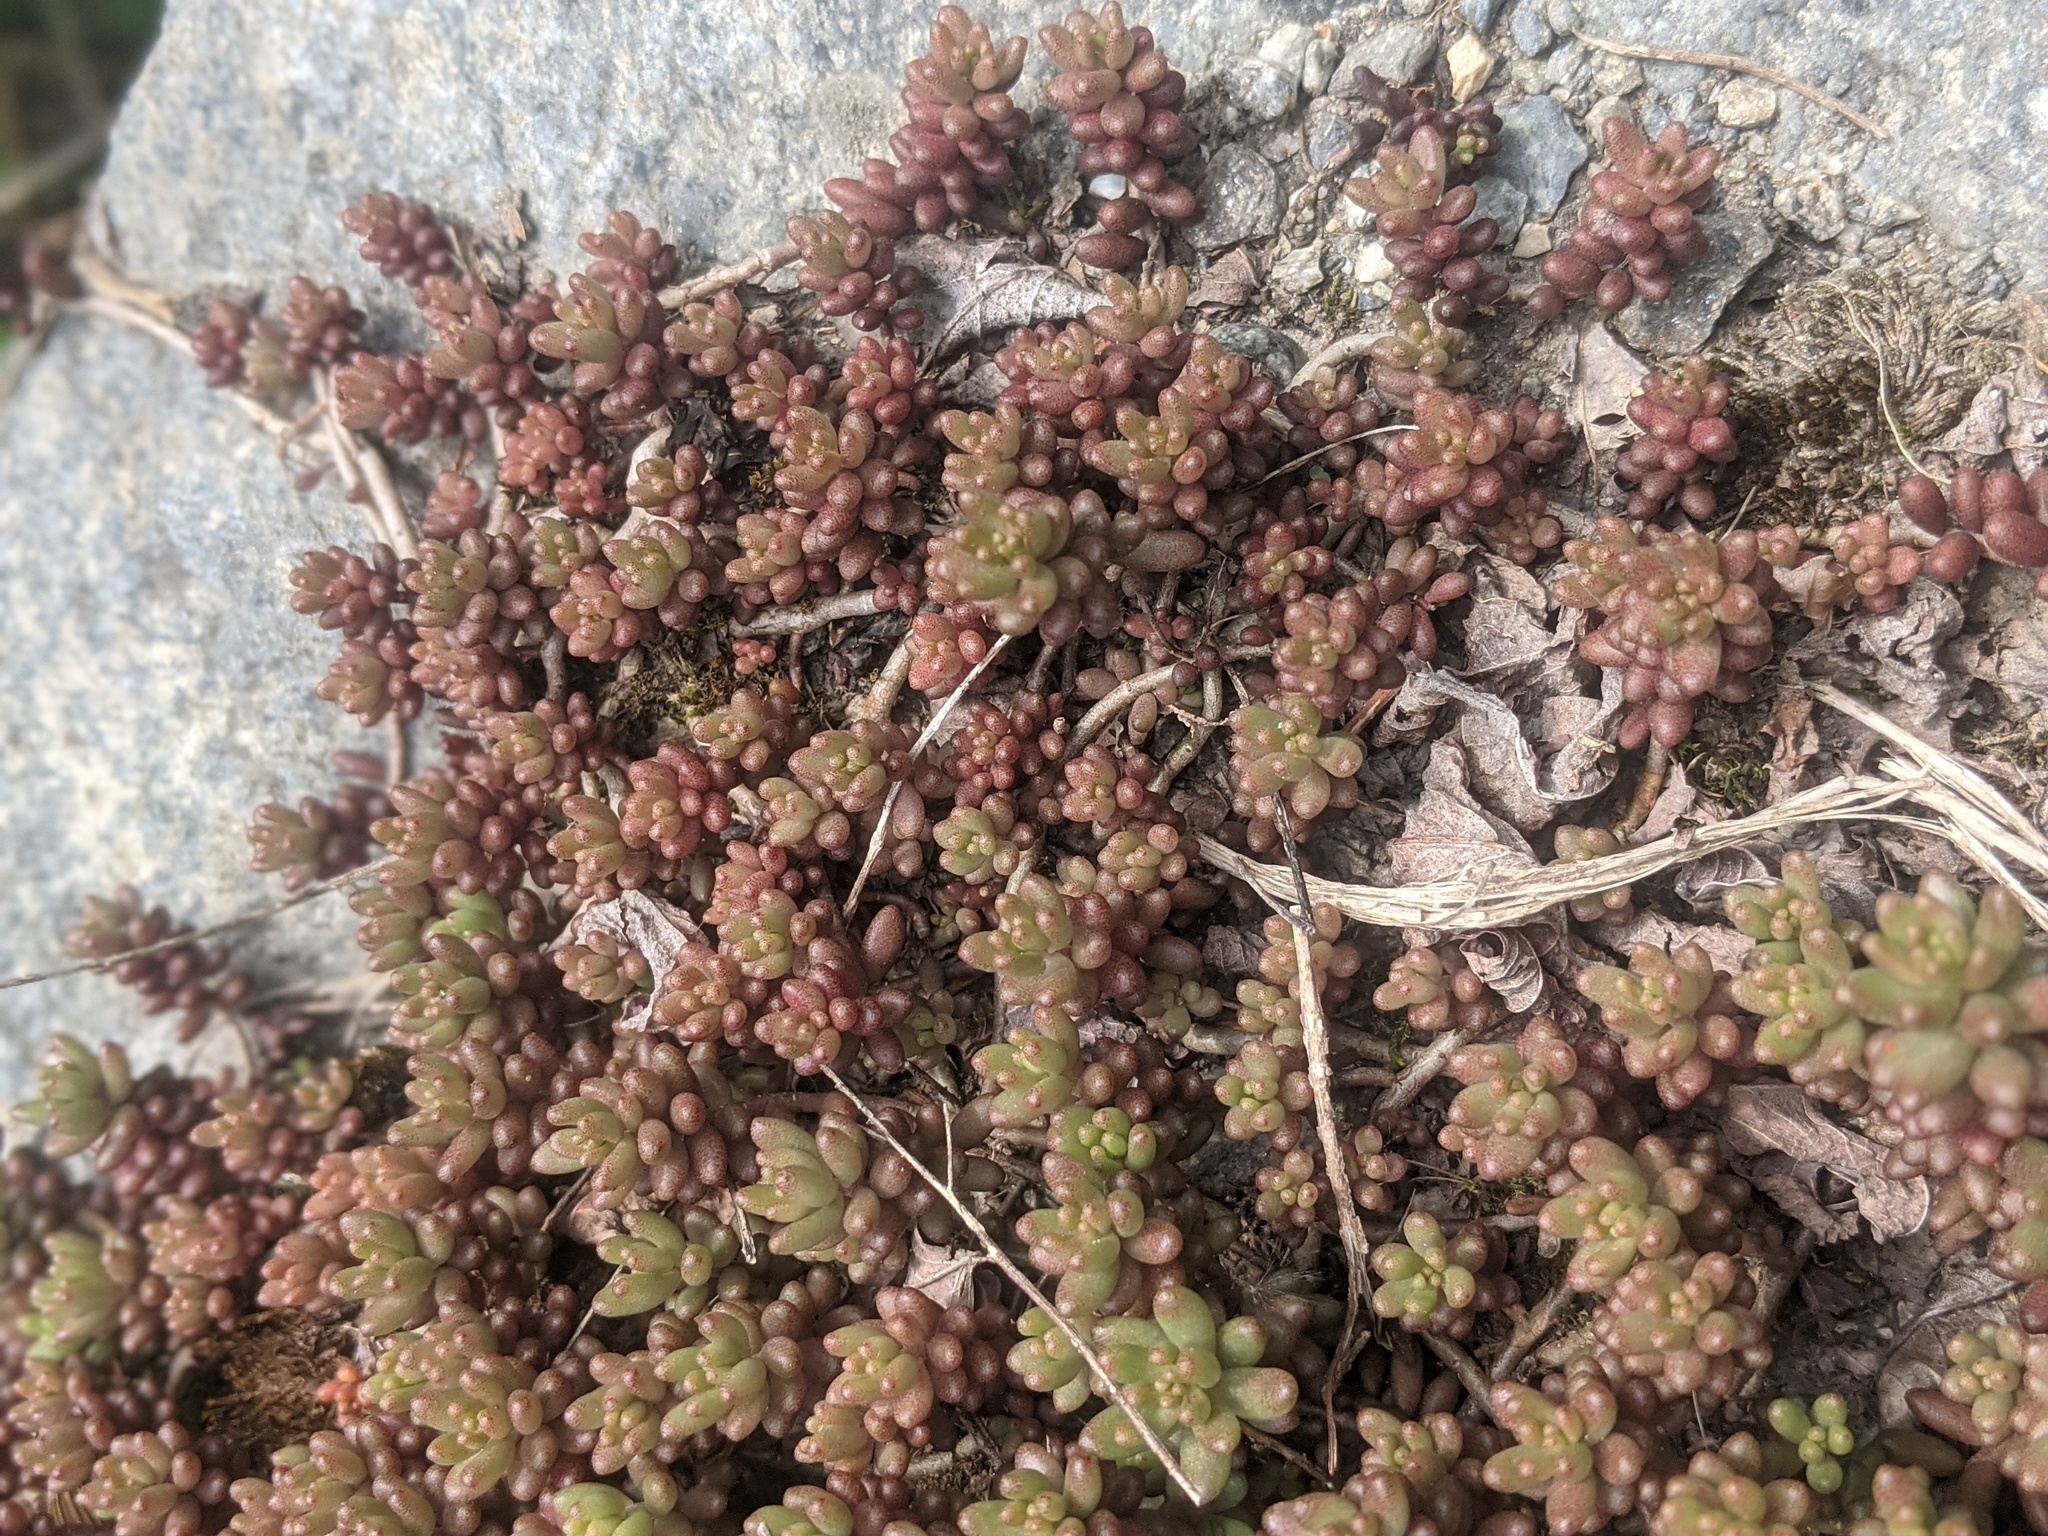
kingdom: Plantae
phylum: Tracheophyta
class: Magnoliopsida
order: Saxifragales
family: Crassulaceae
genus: Sedum
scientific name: Sedum album
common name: White stonecrop
